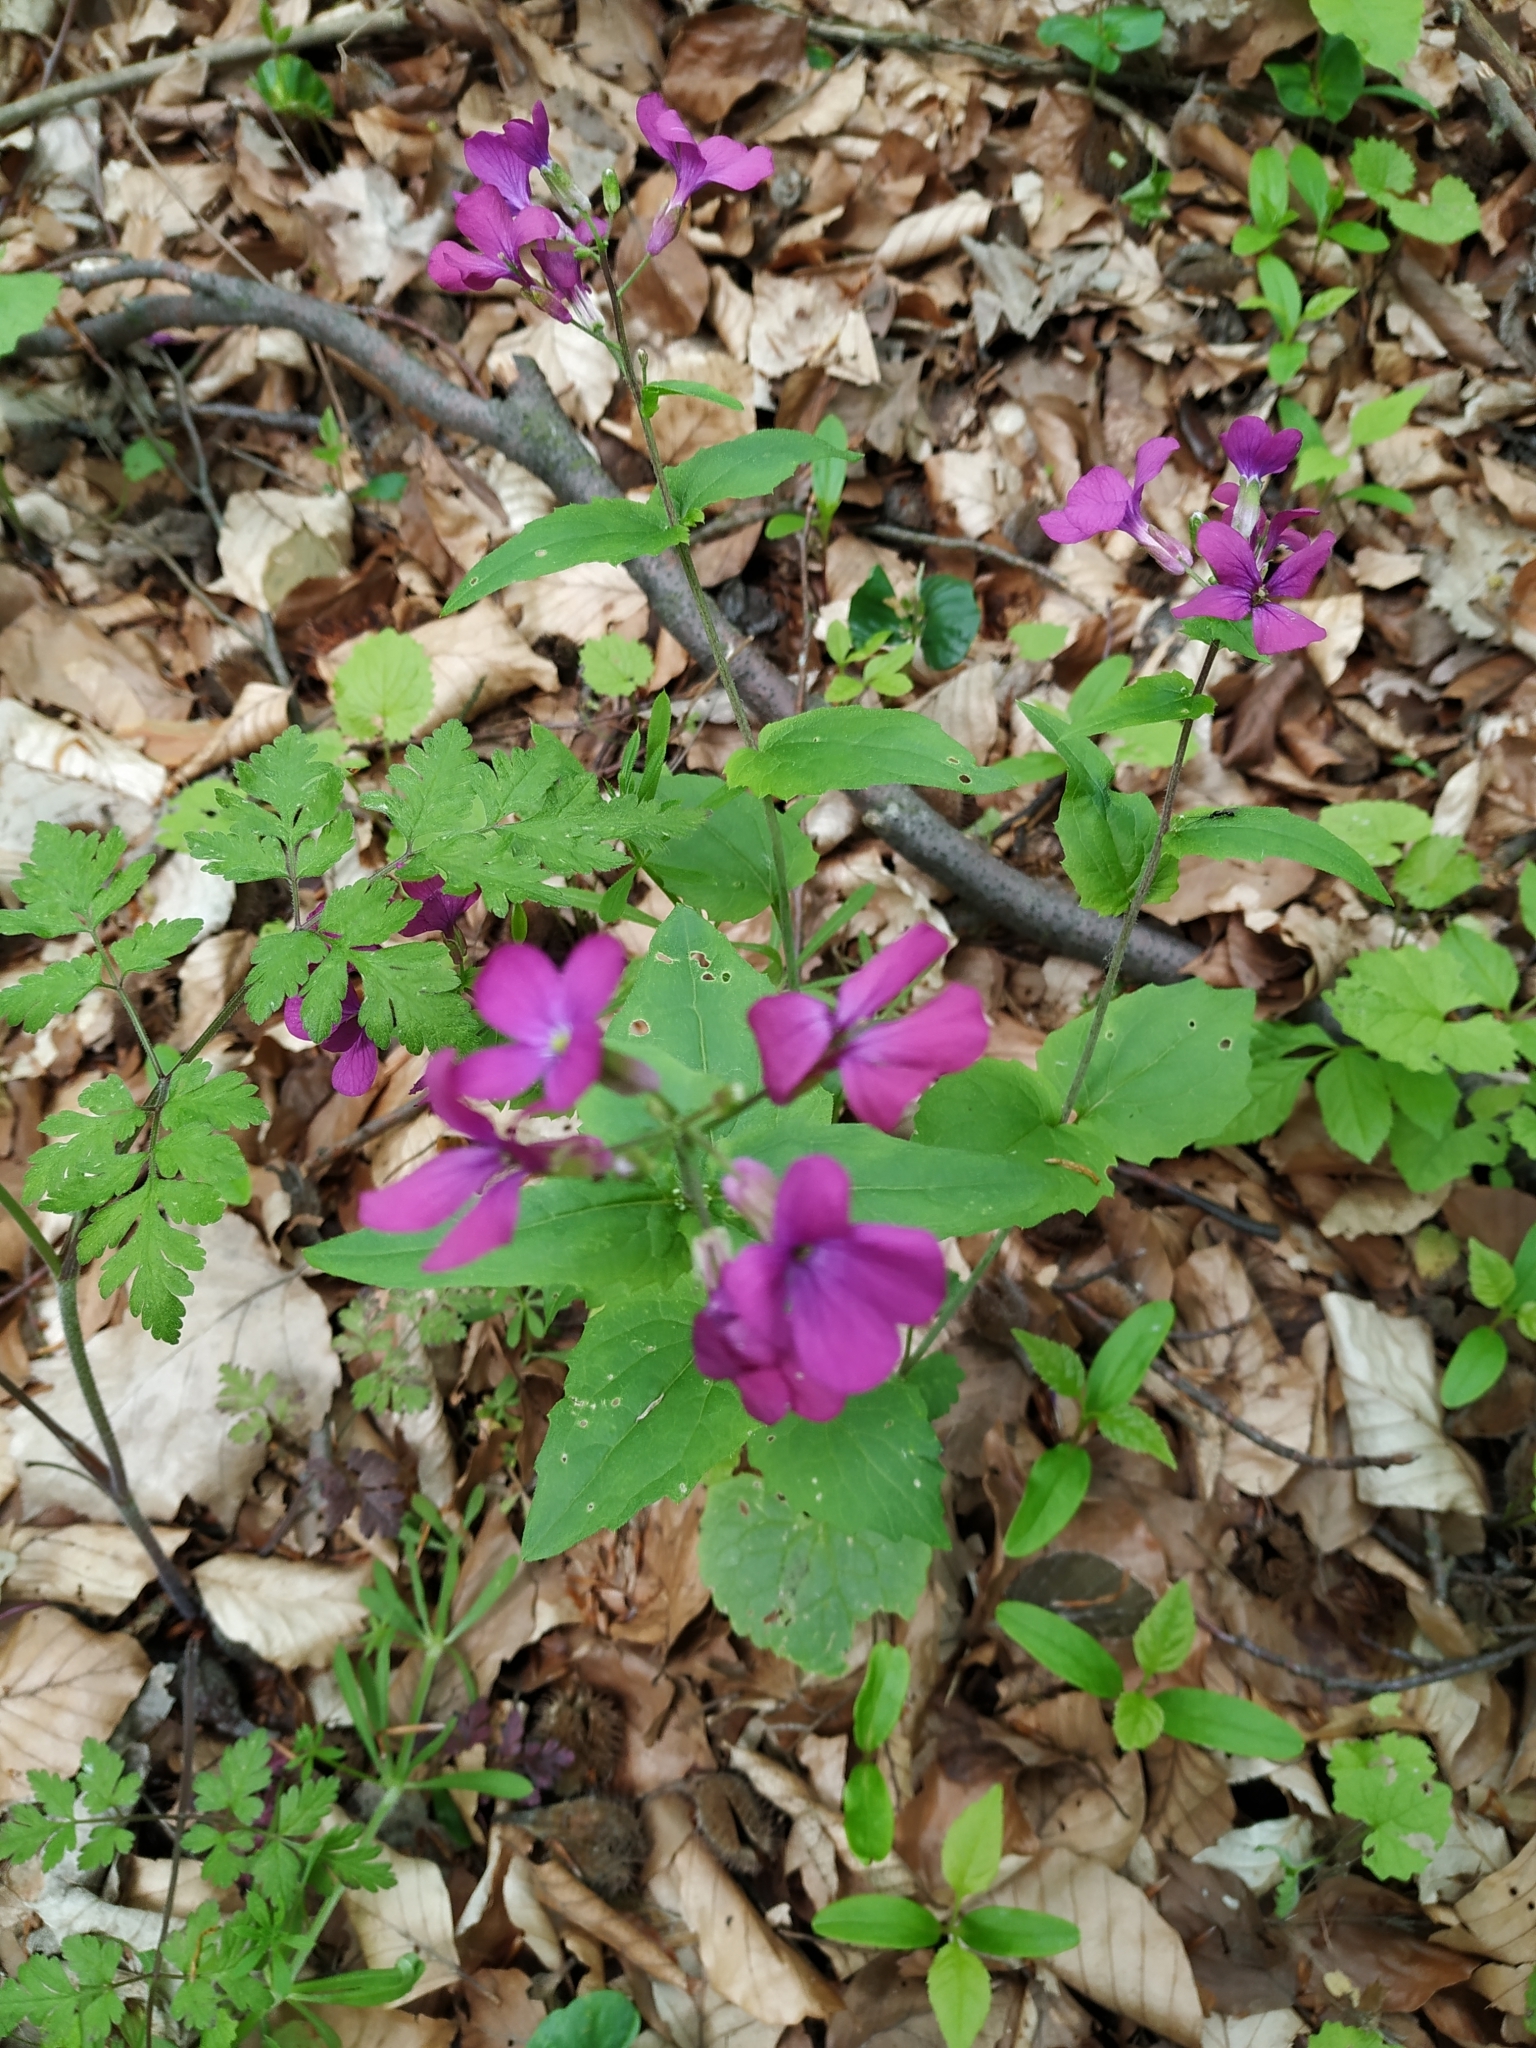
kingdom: Plantae
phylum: Tracheophyta
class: Magnoliopsida
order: Brassicales
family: Brassicaceae
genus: Lunaria
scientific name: Lunaria annua
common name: Honesty
